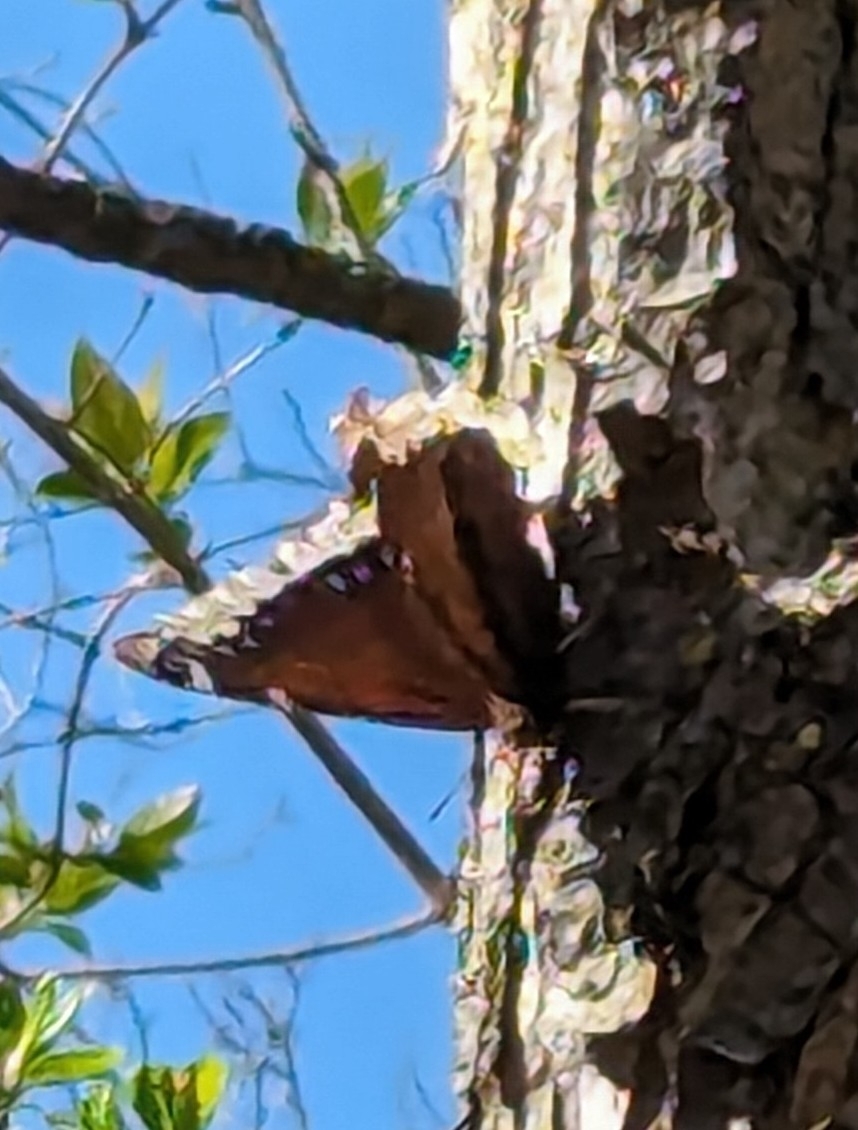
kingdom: Animalia
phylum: Arthropoda
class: Insecta
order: Lepidoptera
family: Nymphalidae
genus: Nymphalis
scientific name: Nymphalis antiopa
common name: Camberwell beauty
